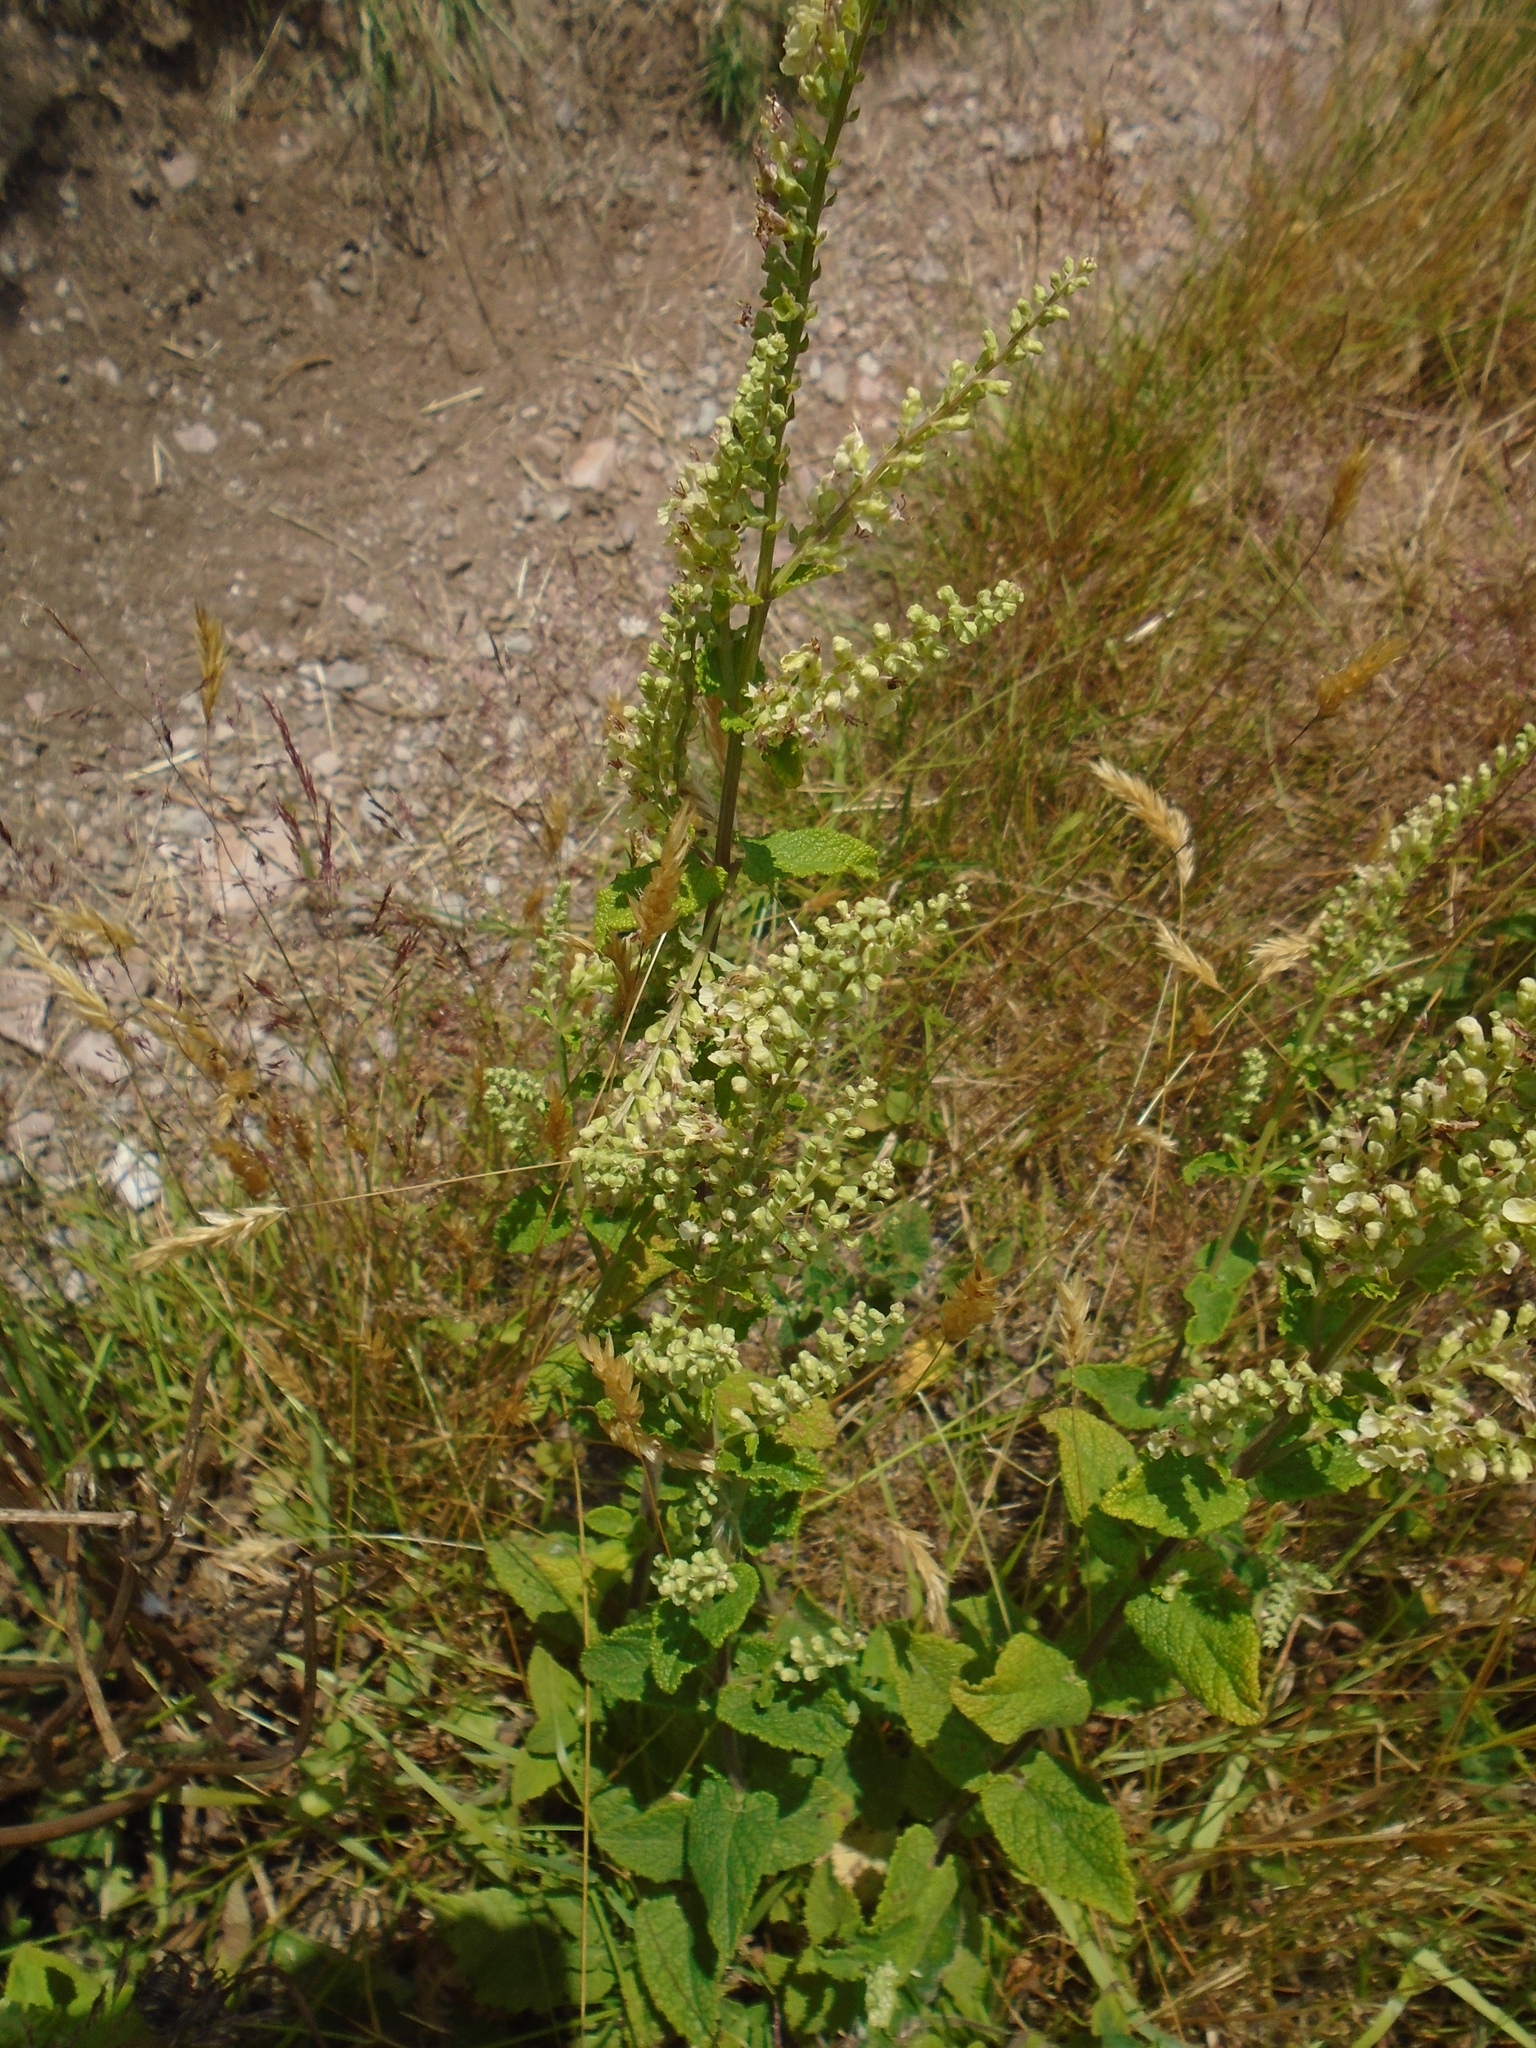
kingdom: Plantae
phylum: Tracheophyta
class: Magnoliopsida
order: Lamiales
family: Lamiaceae
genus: Teucrium
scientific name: Teucrium scorodonia
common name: Woodland germander
